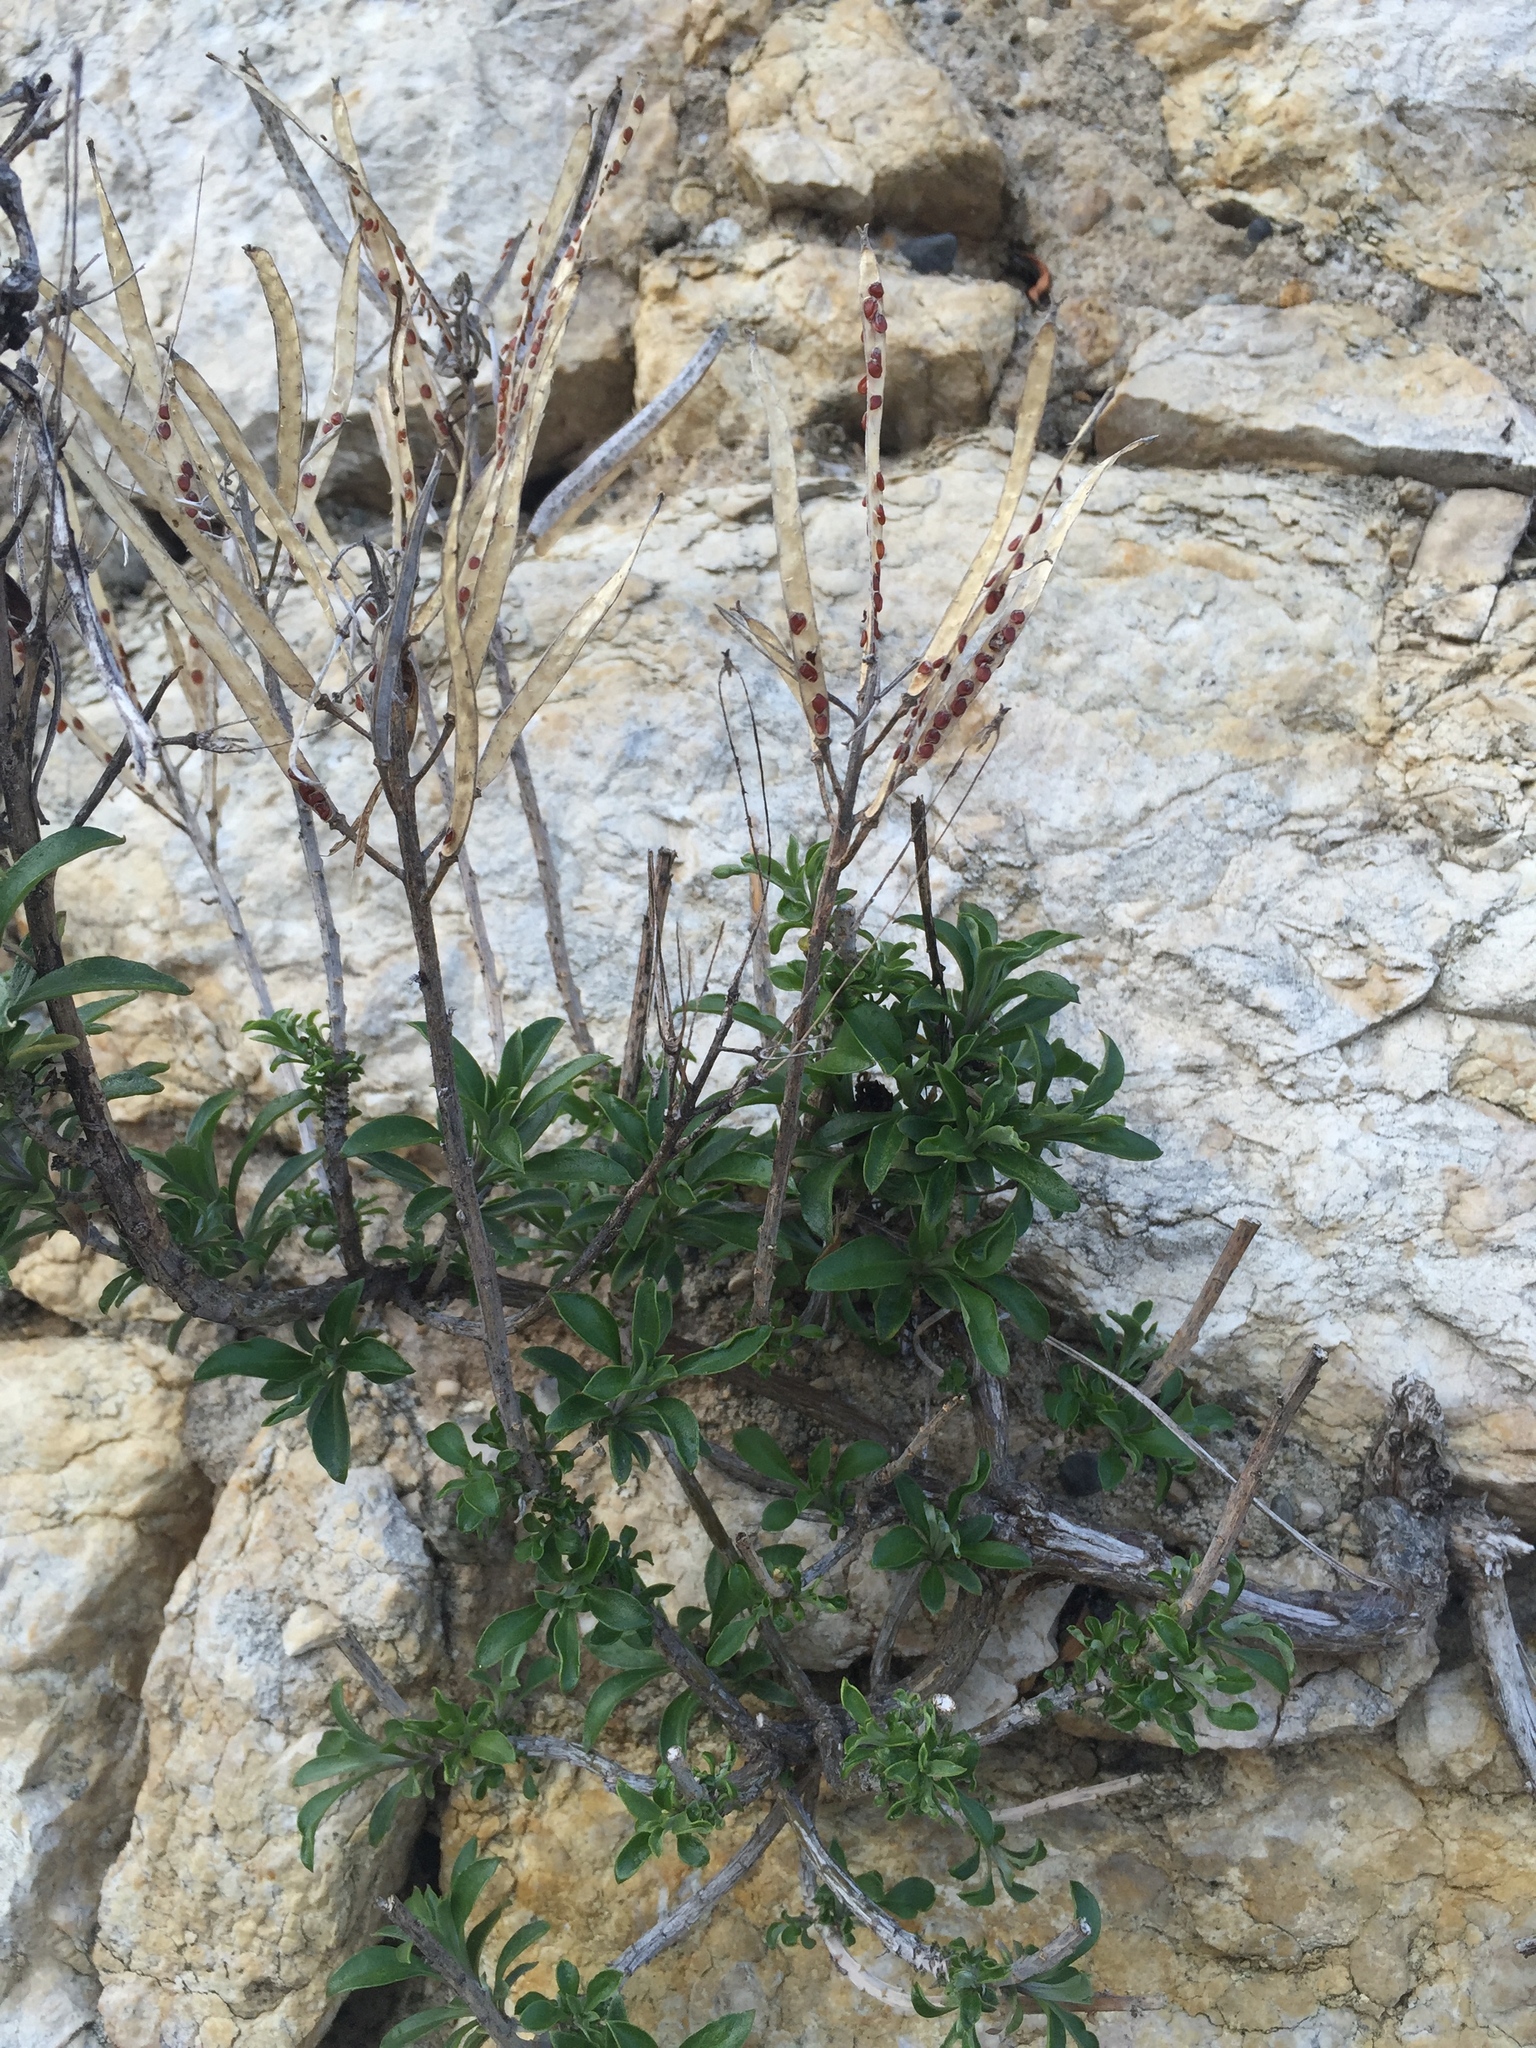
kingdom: Plantae
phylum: Tracheophyta
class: Magnoliopsida
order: Brassicales
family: Brassicaceae
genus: Erysimum
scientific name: Erysimum cheiri
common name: Wallflower
